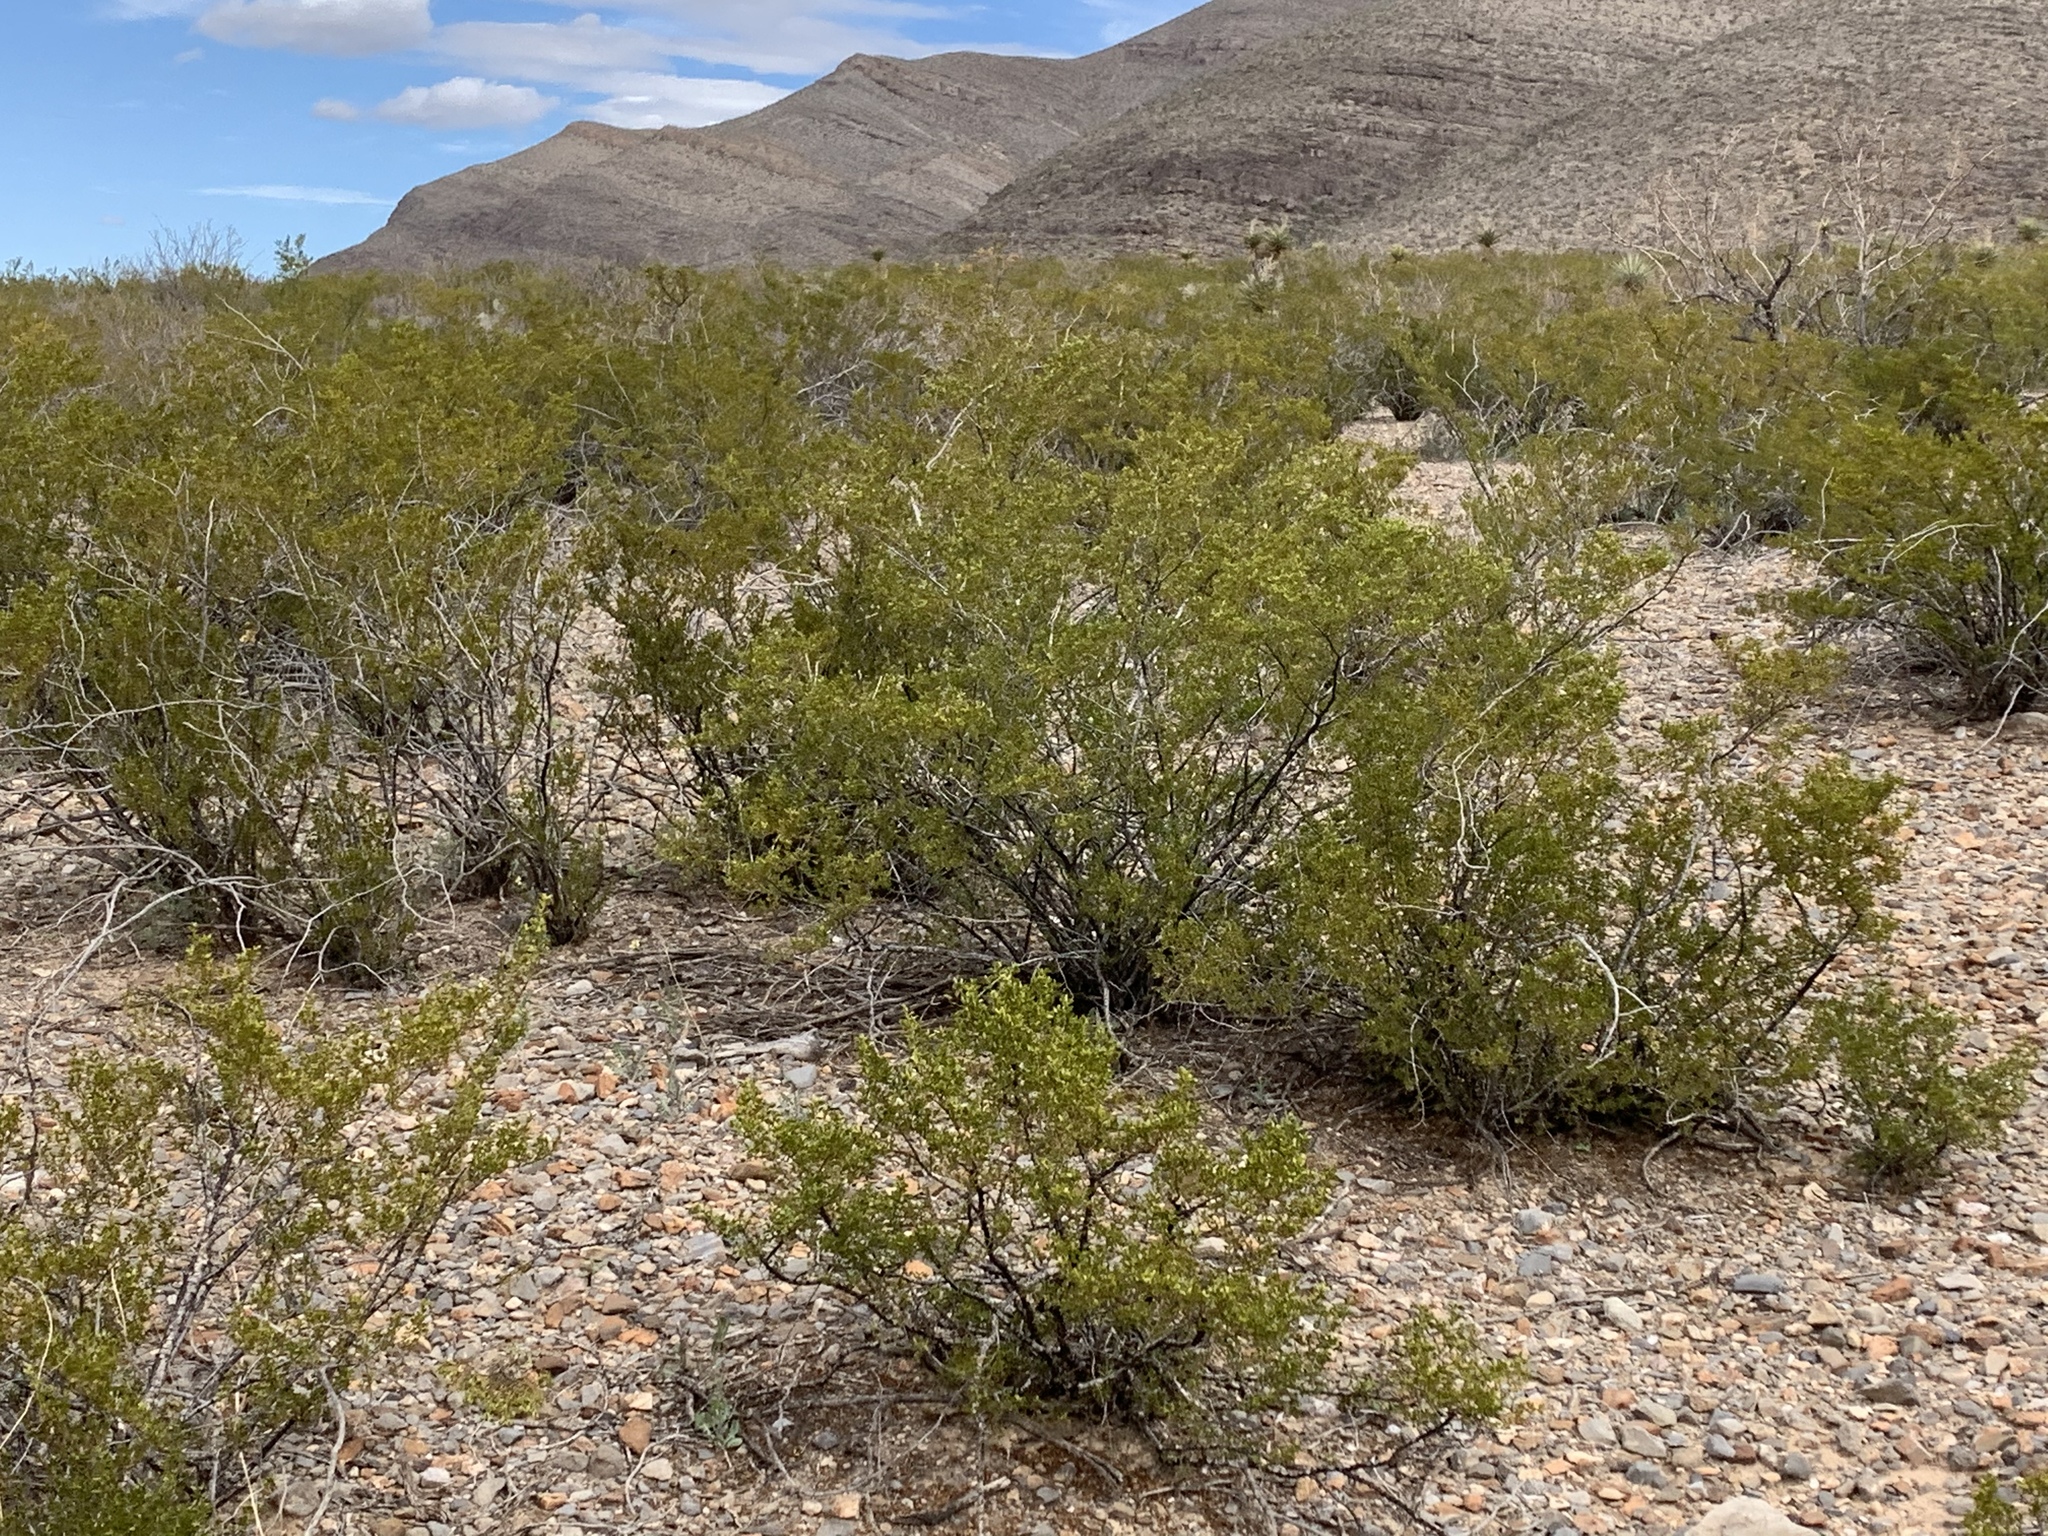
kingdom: Plantae
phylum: Tracheophyta
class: Magnoliopsida
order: Zygophyllales
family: Zygophyllaceae
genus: Larrea
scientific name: Larrea tridentata
